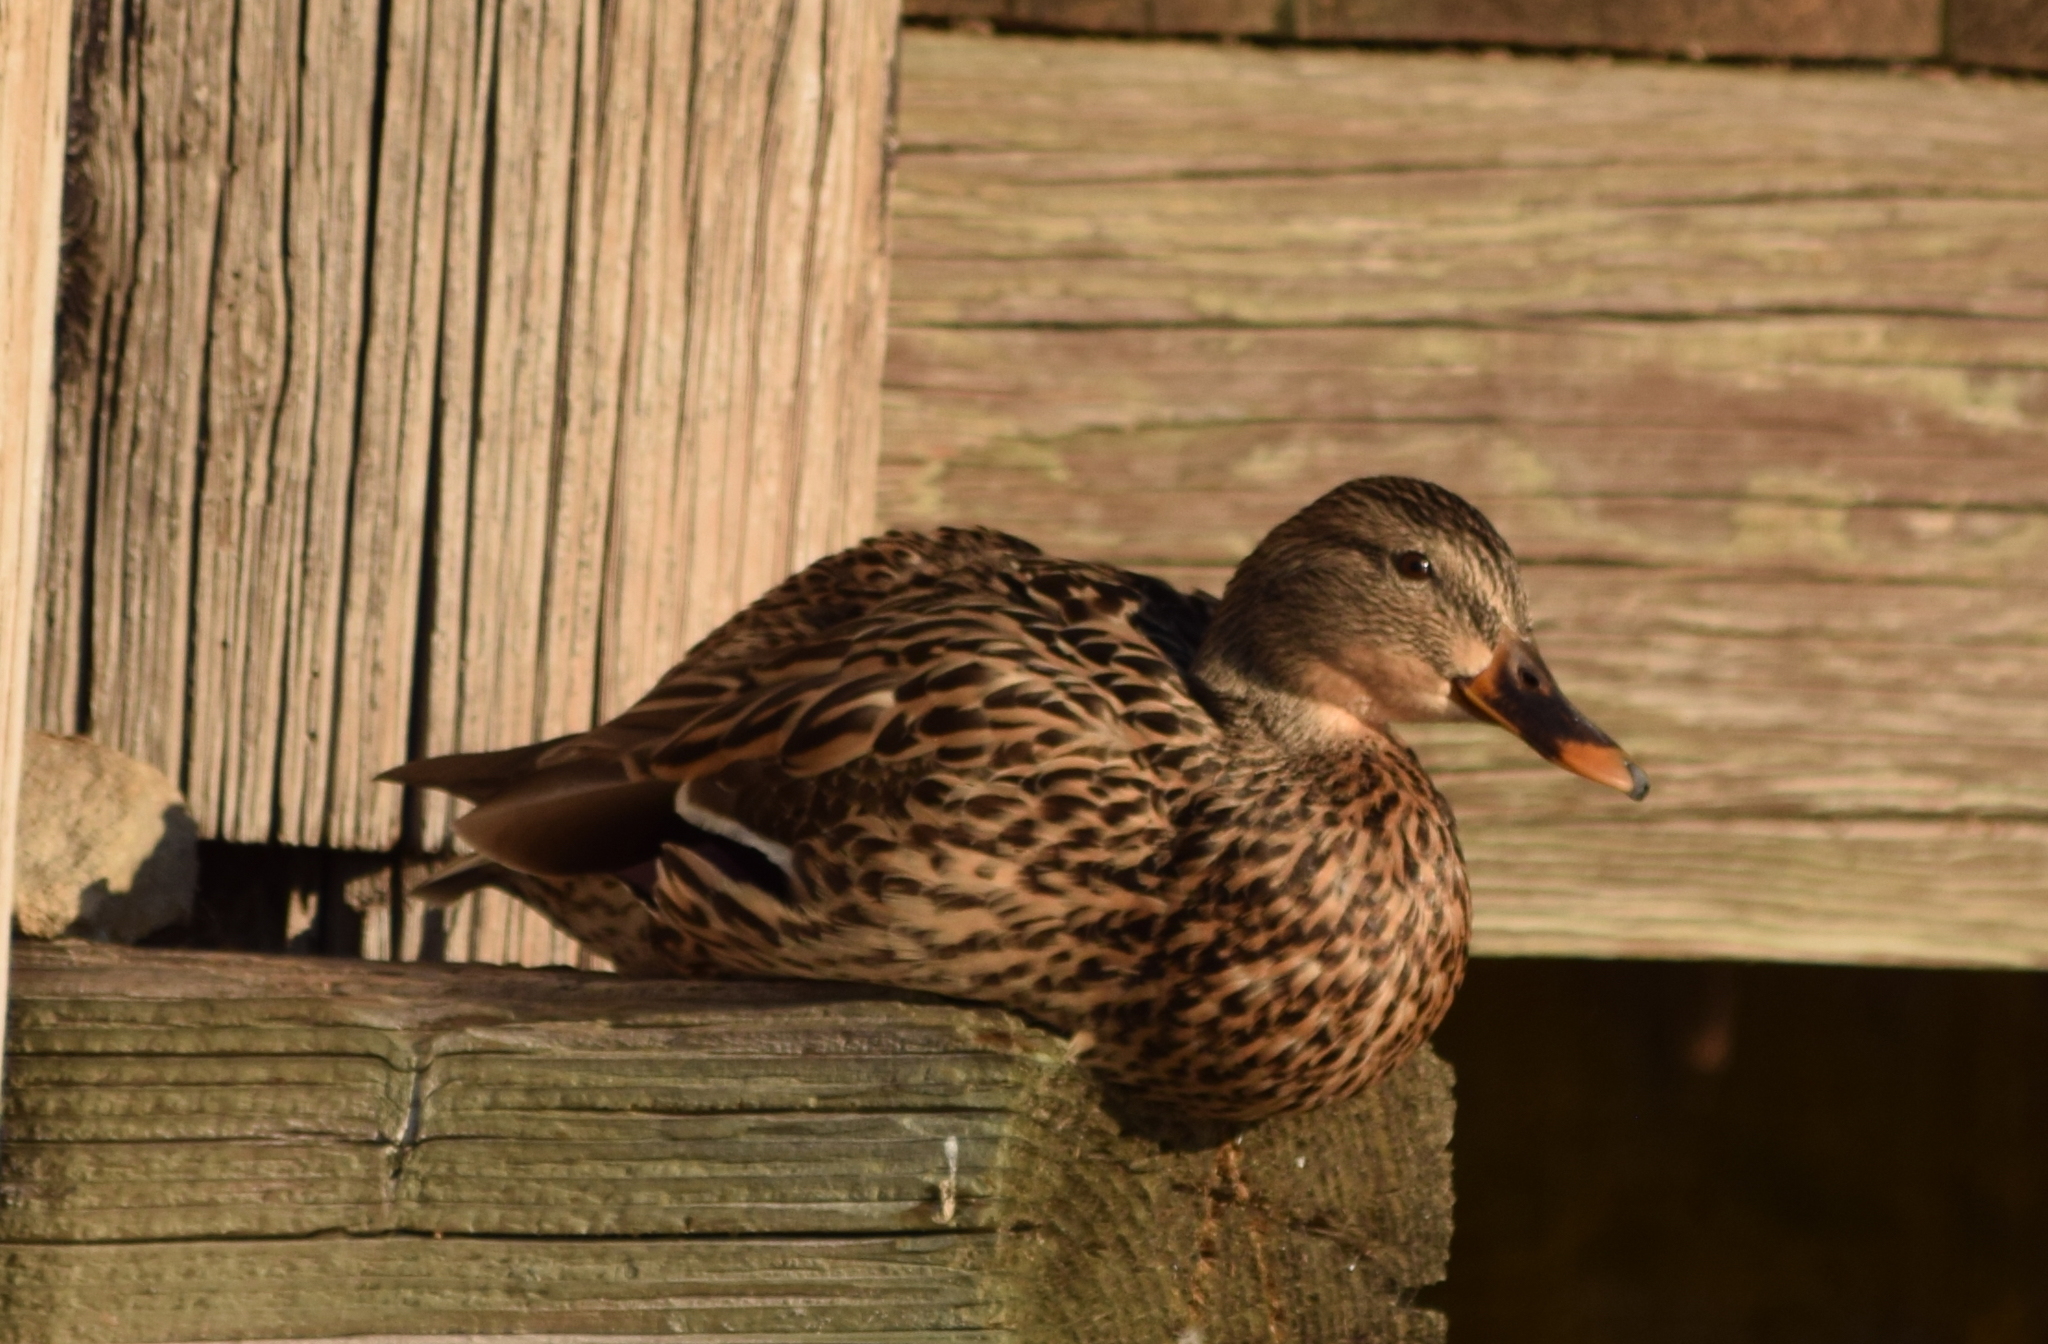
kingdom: Animalia
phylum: Chordata
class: Aves
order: Anseriformes
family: Anatidae
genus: Anas
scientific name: Anas platyrhynchos
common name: Mallard
